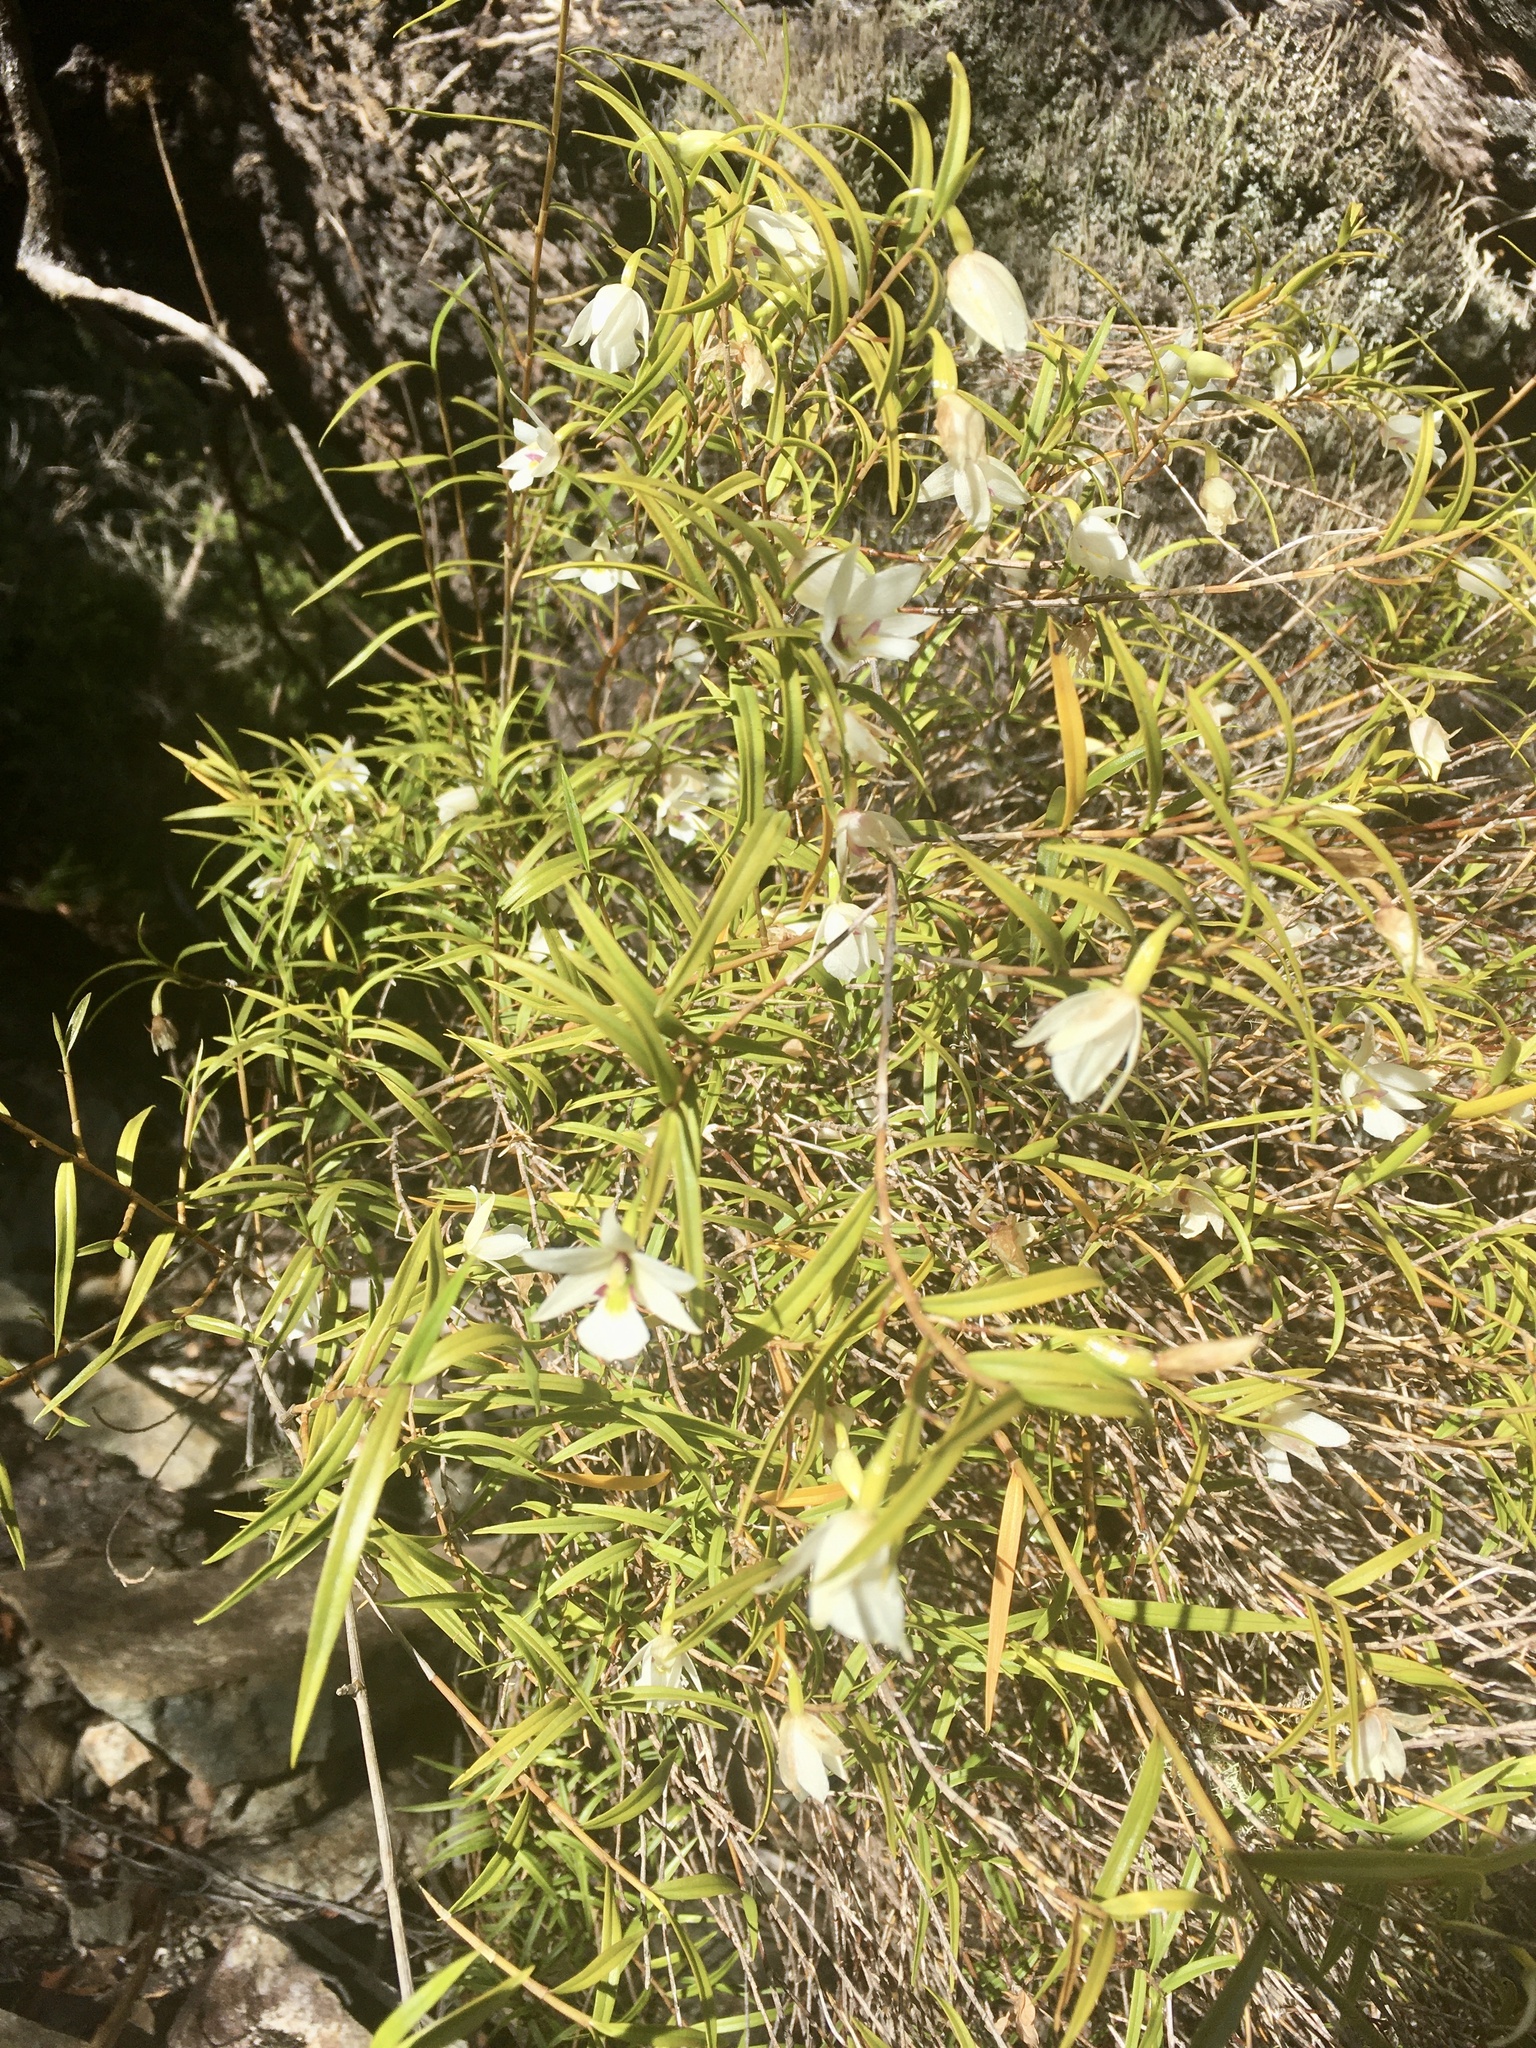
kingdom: Plantae
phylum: Tracheophyta
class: Liliopsida
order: Asparagales
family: Orchidaceae
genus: Dendrobium
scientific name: Dendrobium cunninghamii
